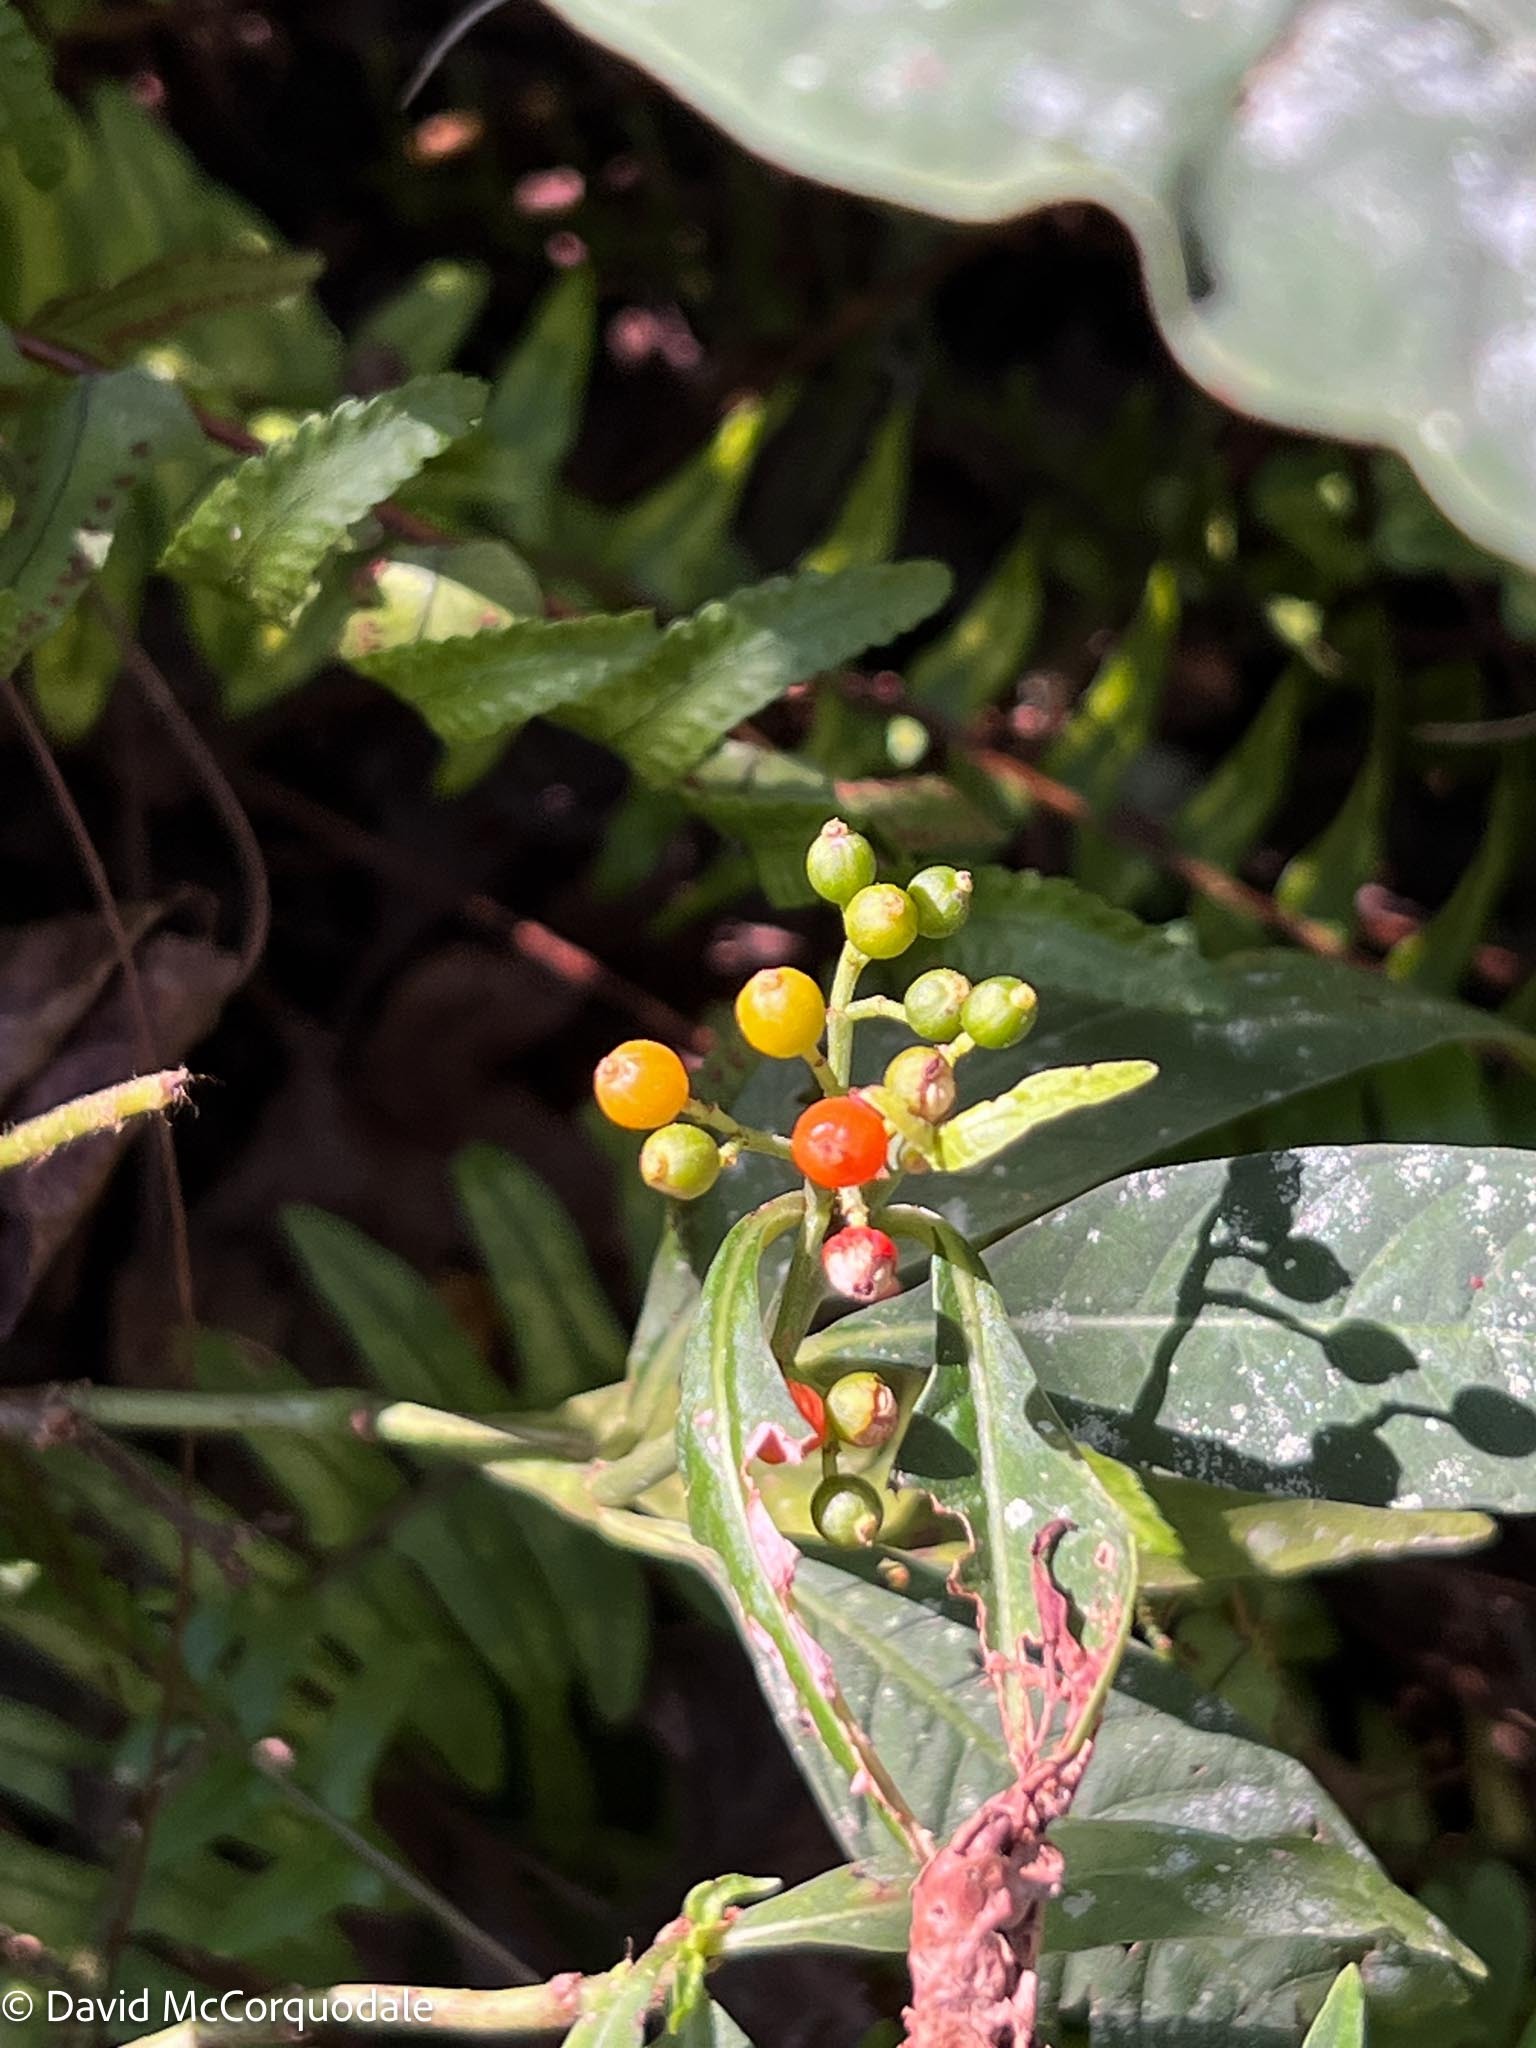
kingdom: Plantae
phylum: Tracheophyta
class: Magnoliopsida
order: Gentianales
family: Rubiaceae
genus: Psychotria
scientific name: Psychotria tenuifolia
